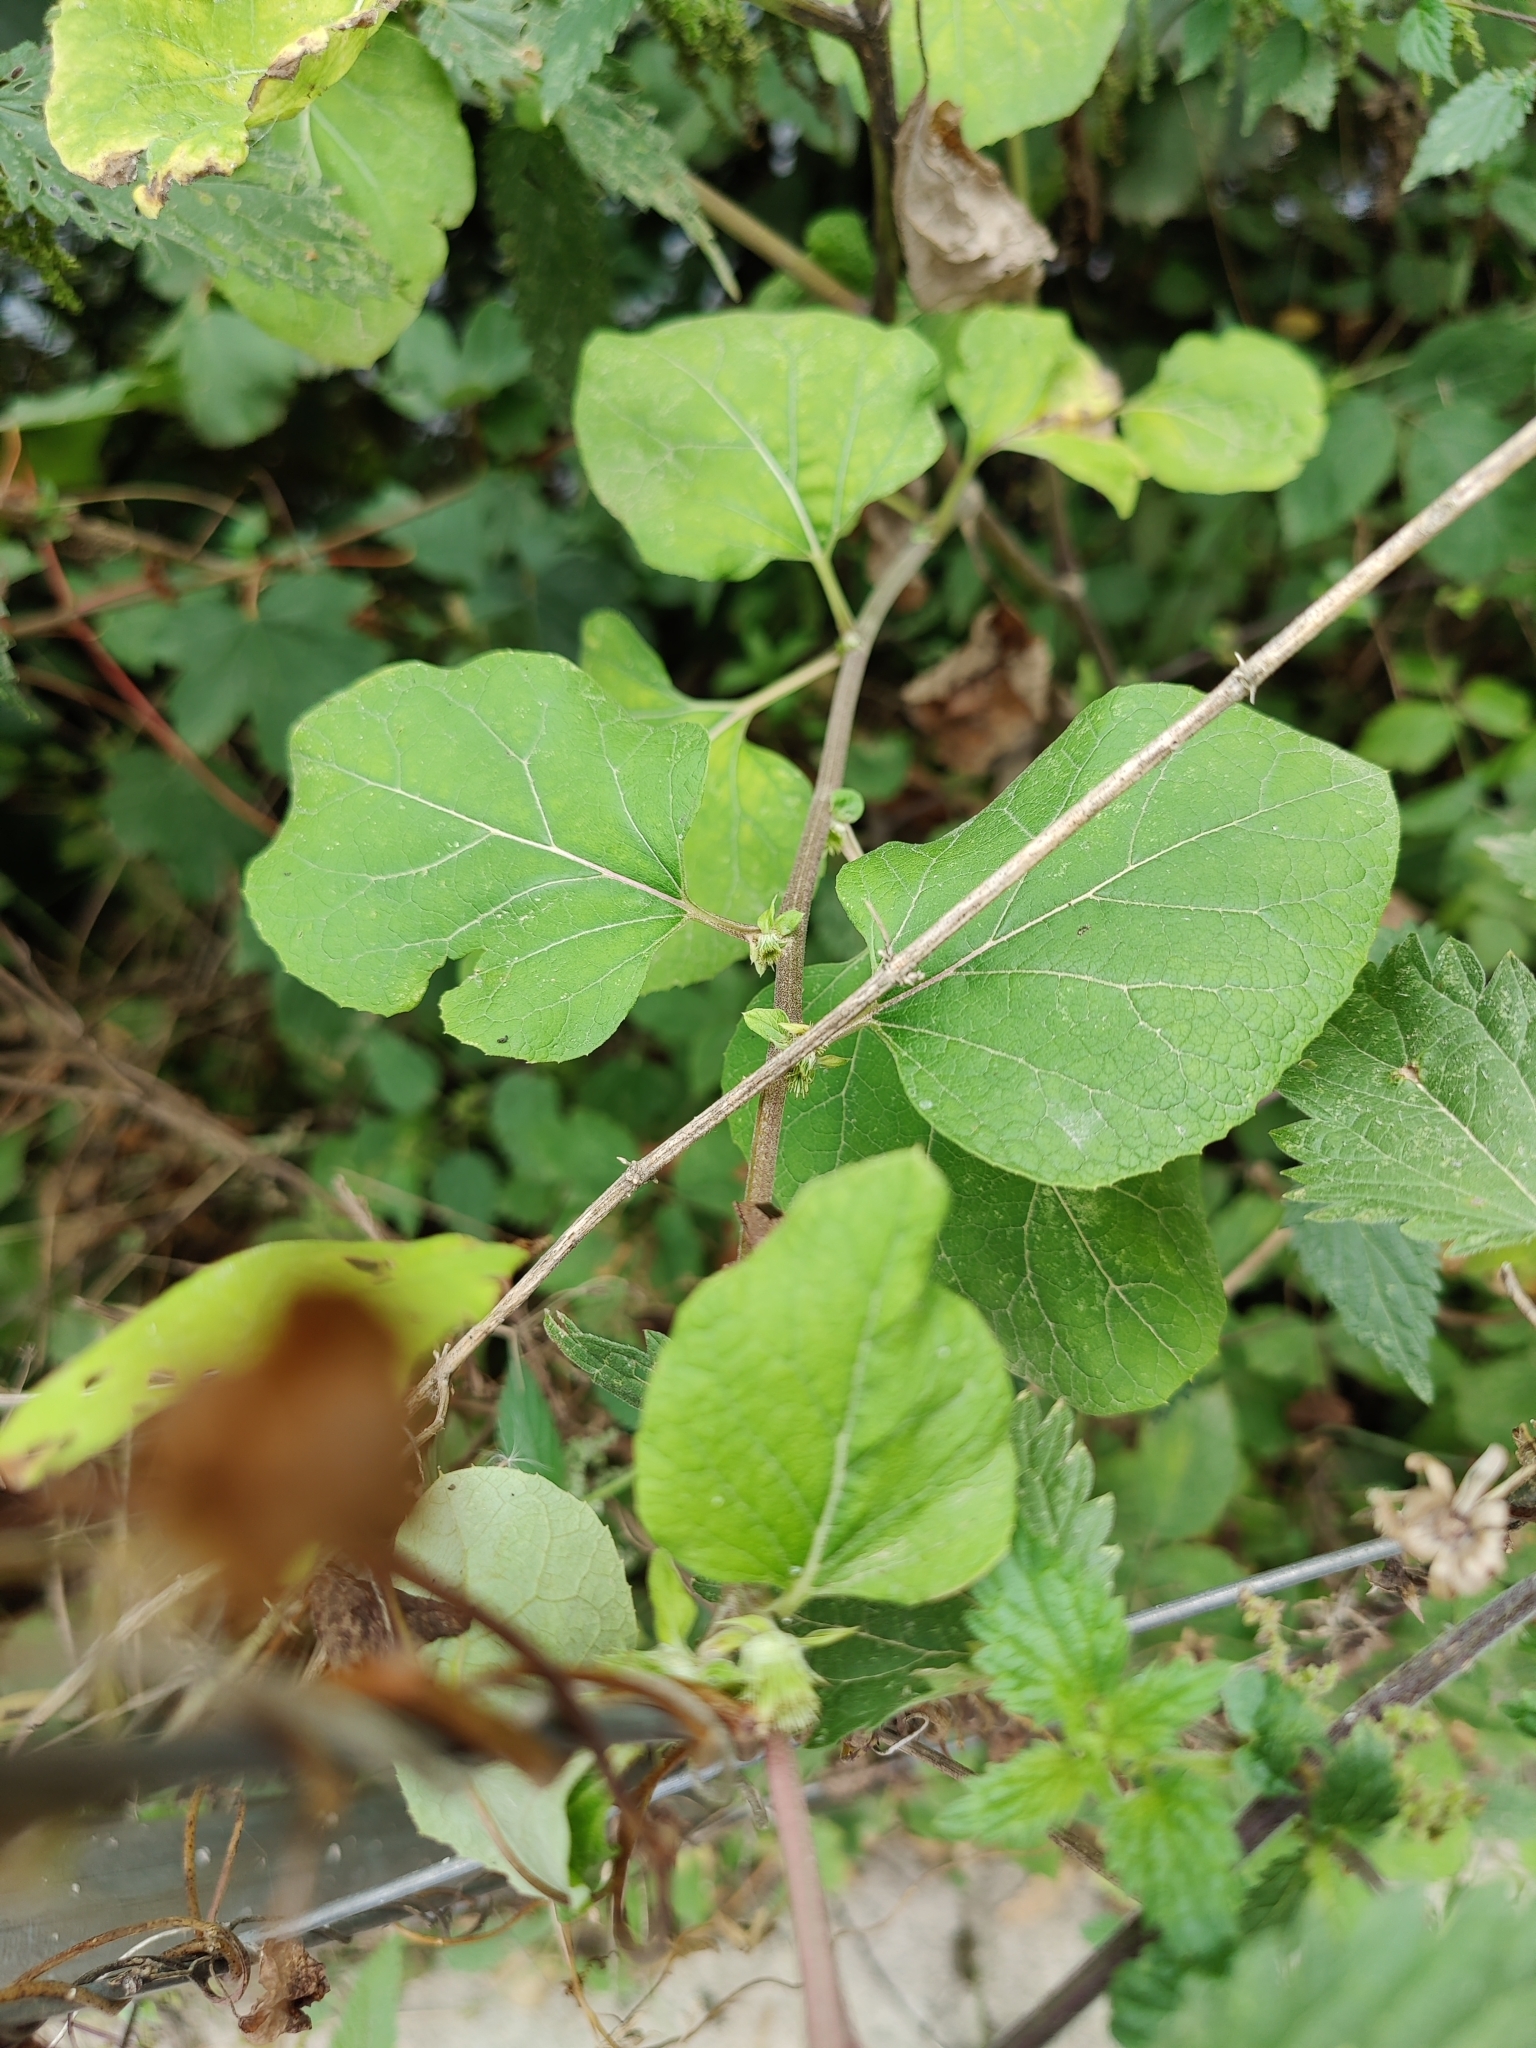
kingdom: Plantae
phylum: Tracheophyta
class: Magnoliopsida
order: Asterales
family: Asteraceae
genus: Arctium
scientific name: Arctium lappa
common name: Greater burdock
